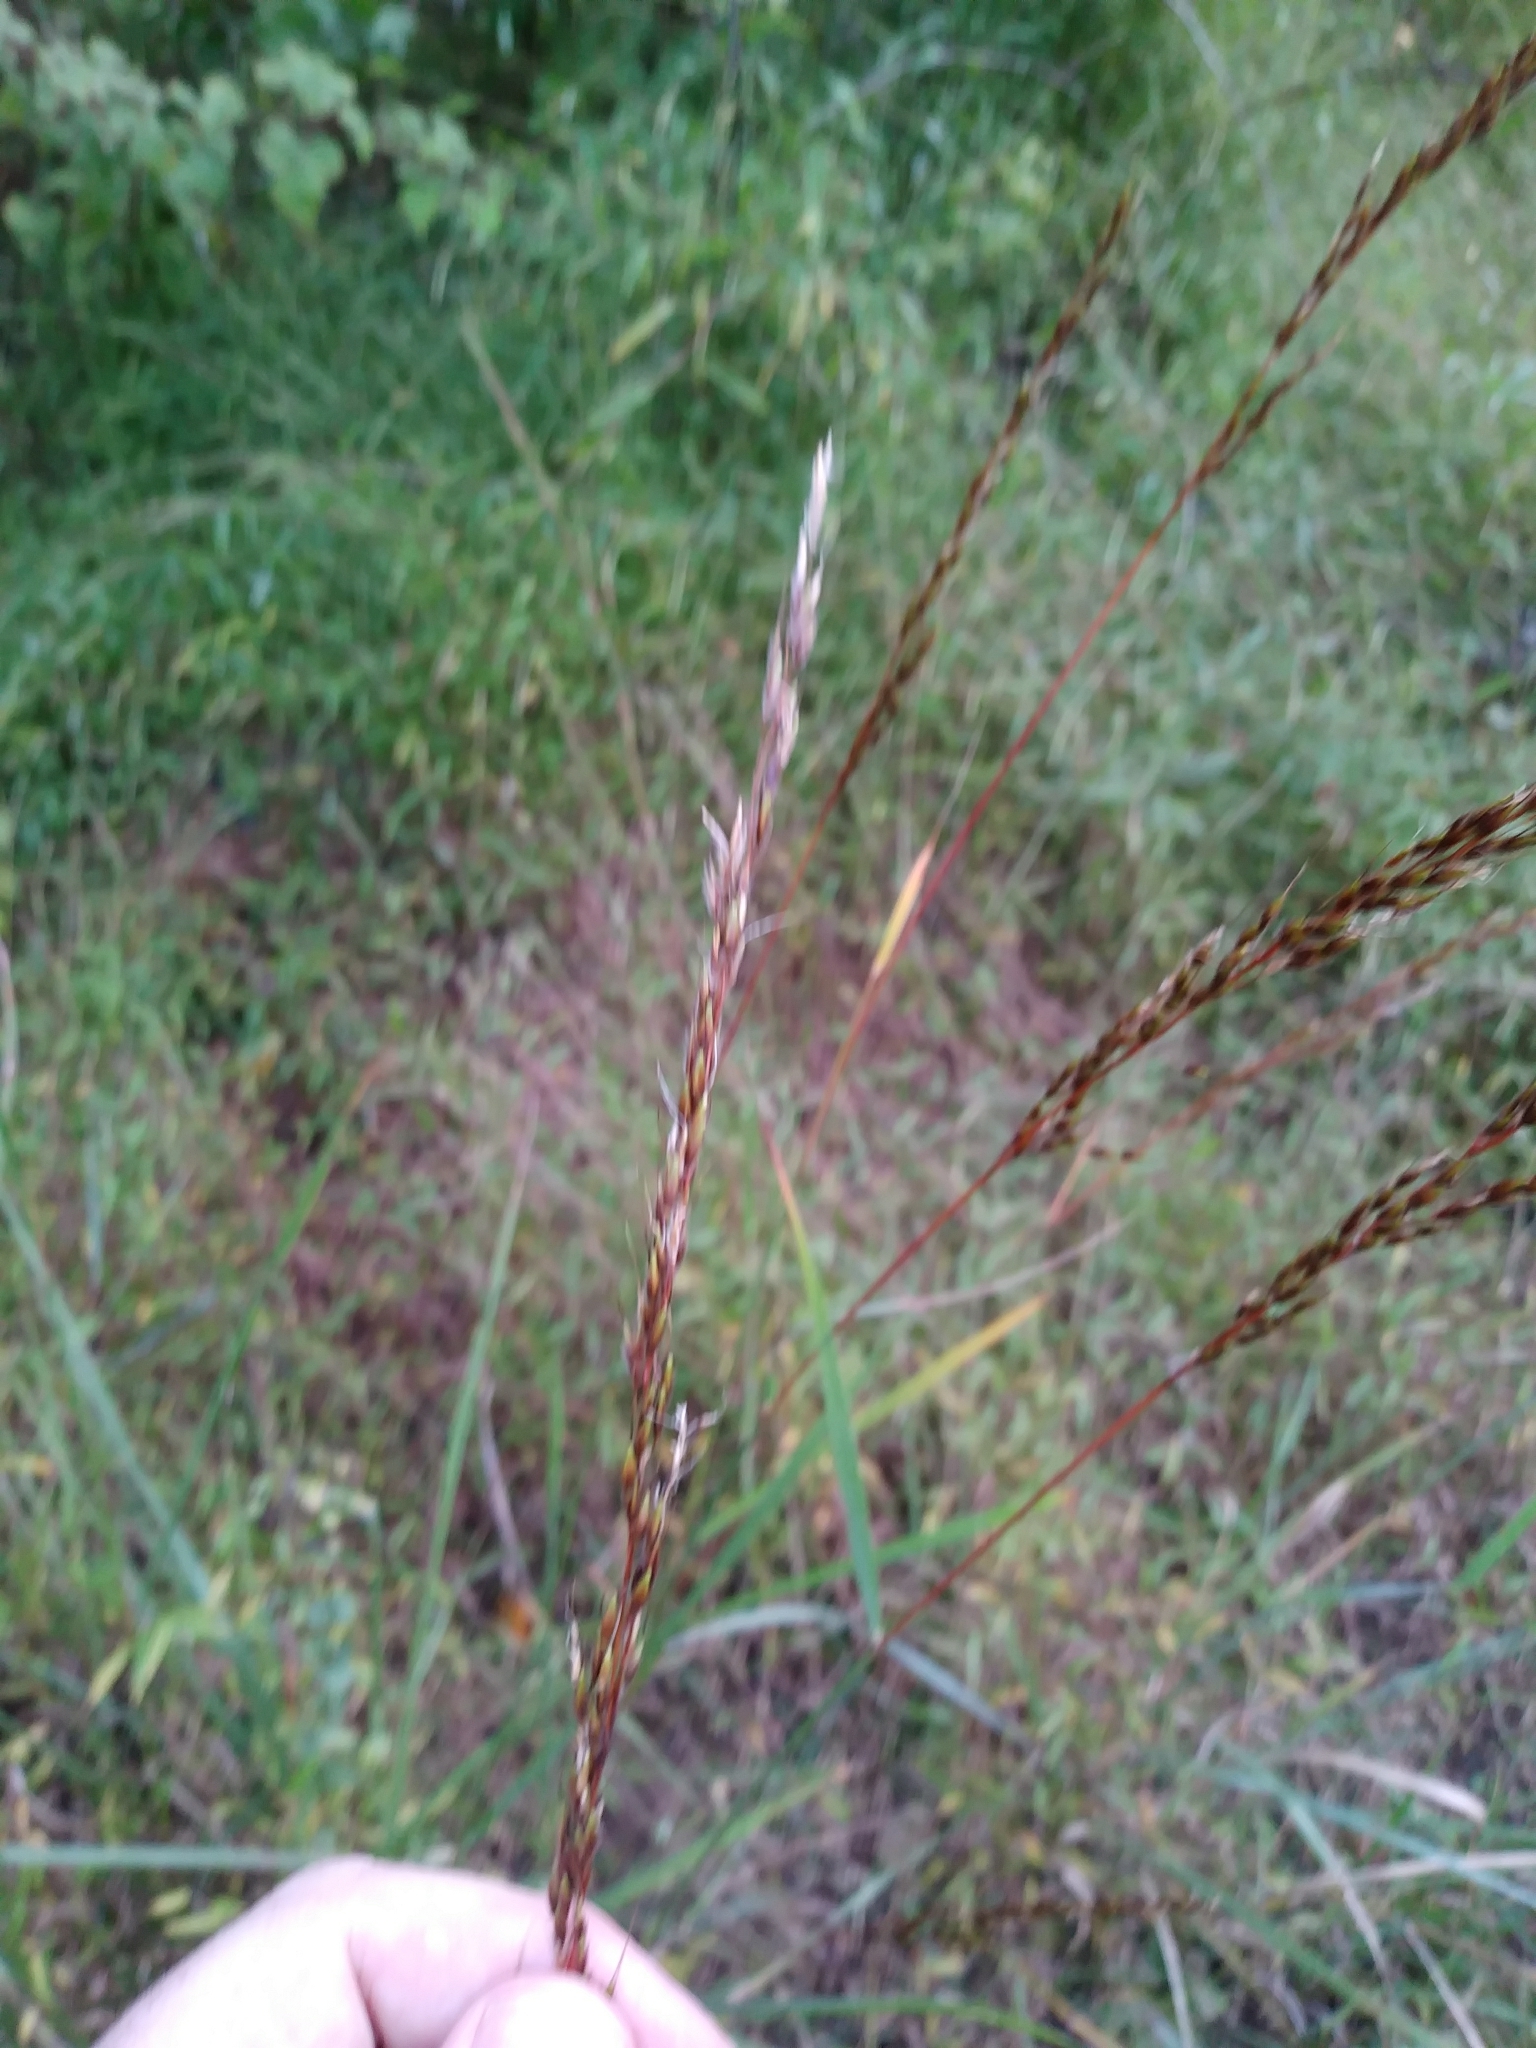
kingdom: Plantae
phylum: Tracheophyta
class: Liliopsida
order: Poales
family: Poaceae
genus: Sorghastrum
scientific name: Sorghastrum nutans
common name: Indian grass
